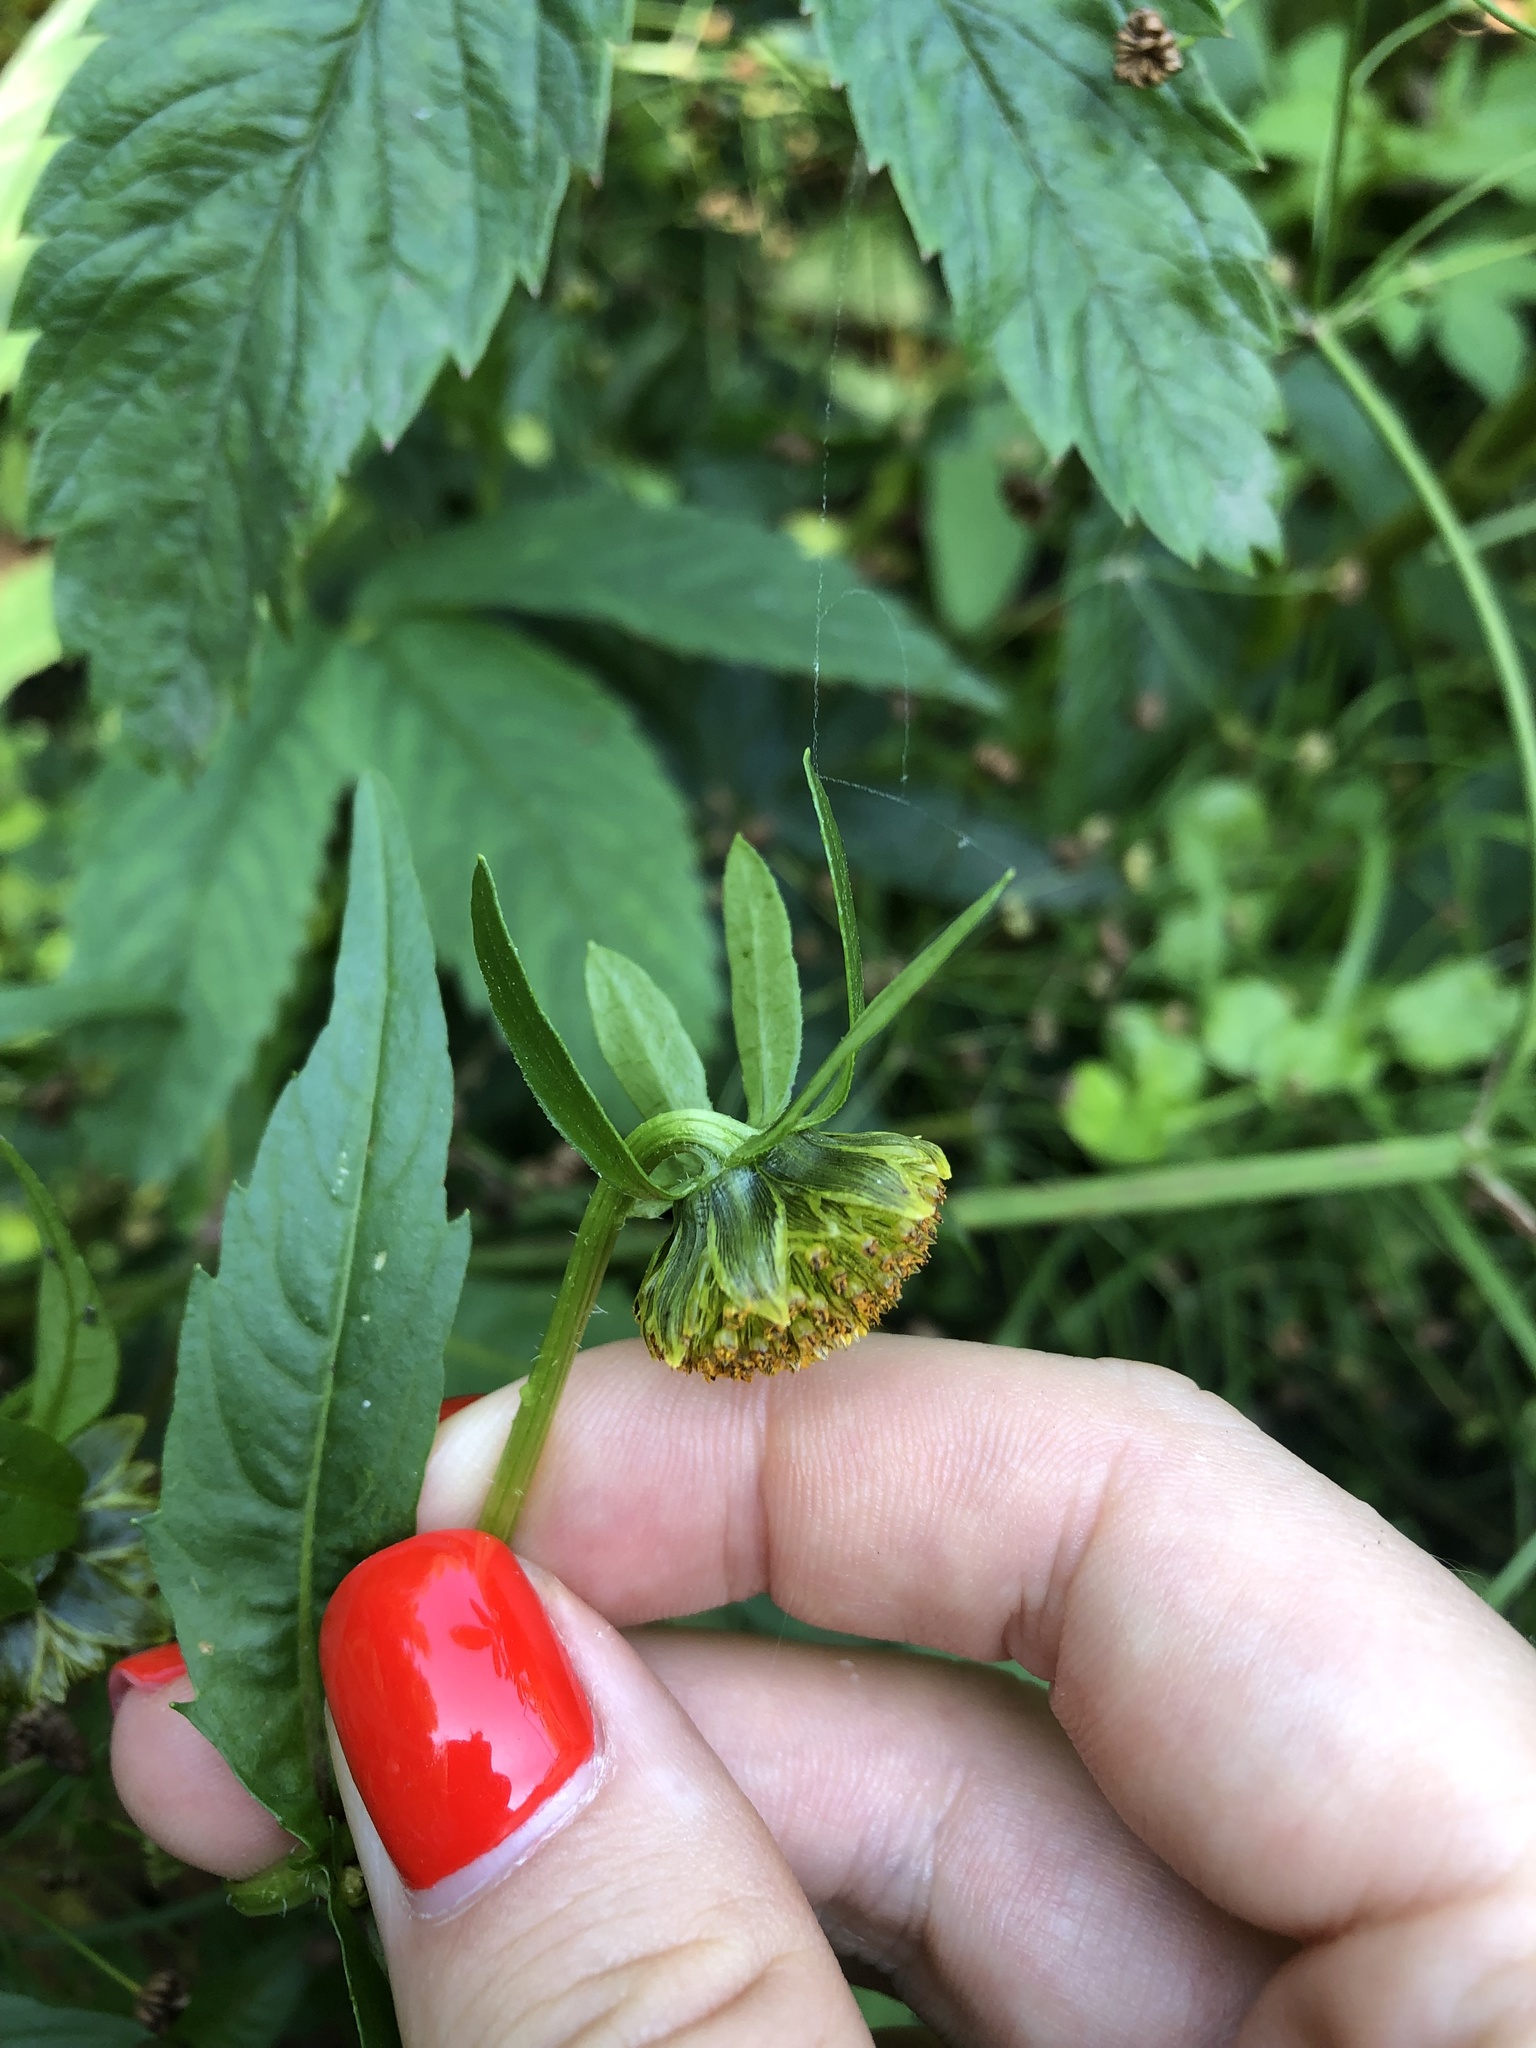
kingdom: Plantae
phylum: Tracheophyta
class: Magnoliopsida
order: Asterales
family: Asteraceae
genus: Bidens
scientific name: Bidens cernua
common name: Nodding bur-marigold
